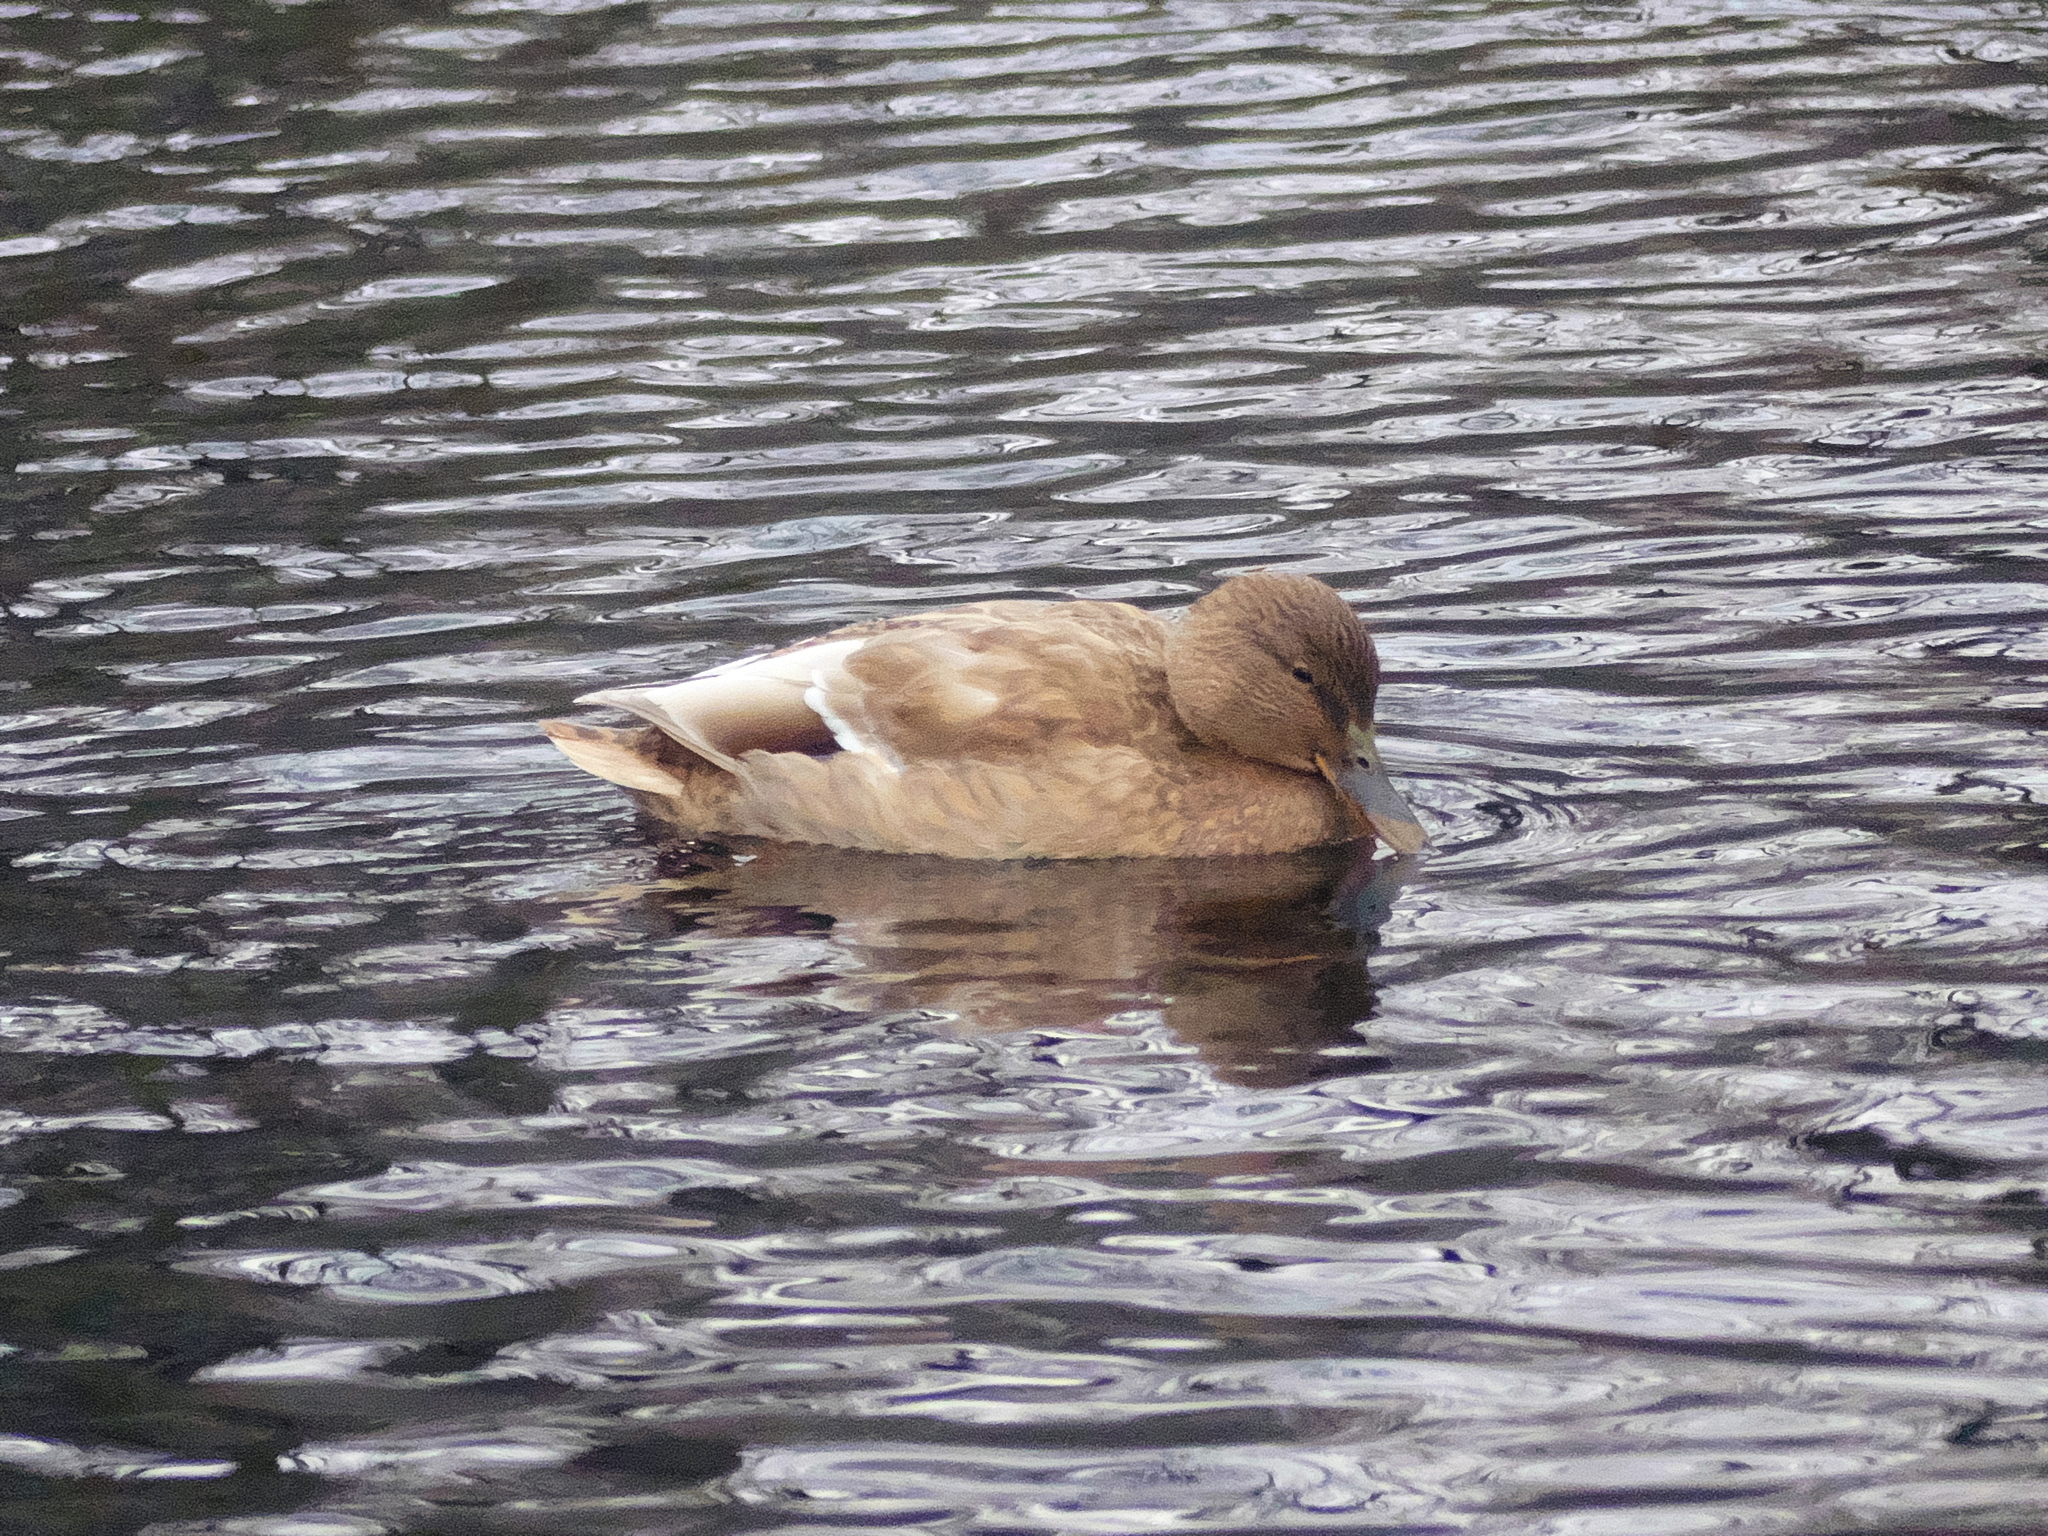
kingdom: Animalia
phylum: Chordata
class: Aves
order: Anseriformes
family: Anatidae
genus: Anas
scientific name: Anas platyrhynchos
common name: Mallard
